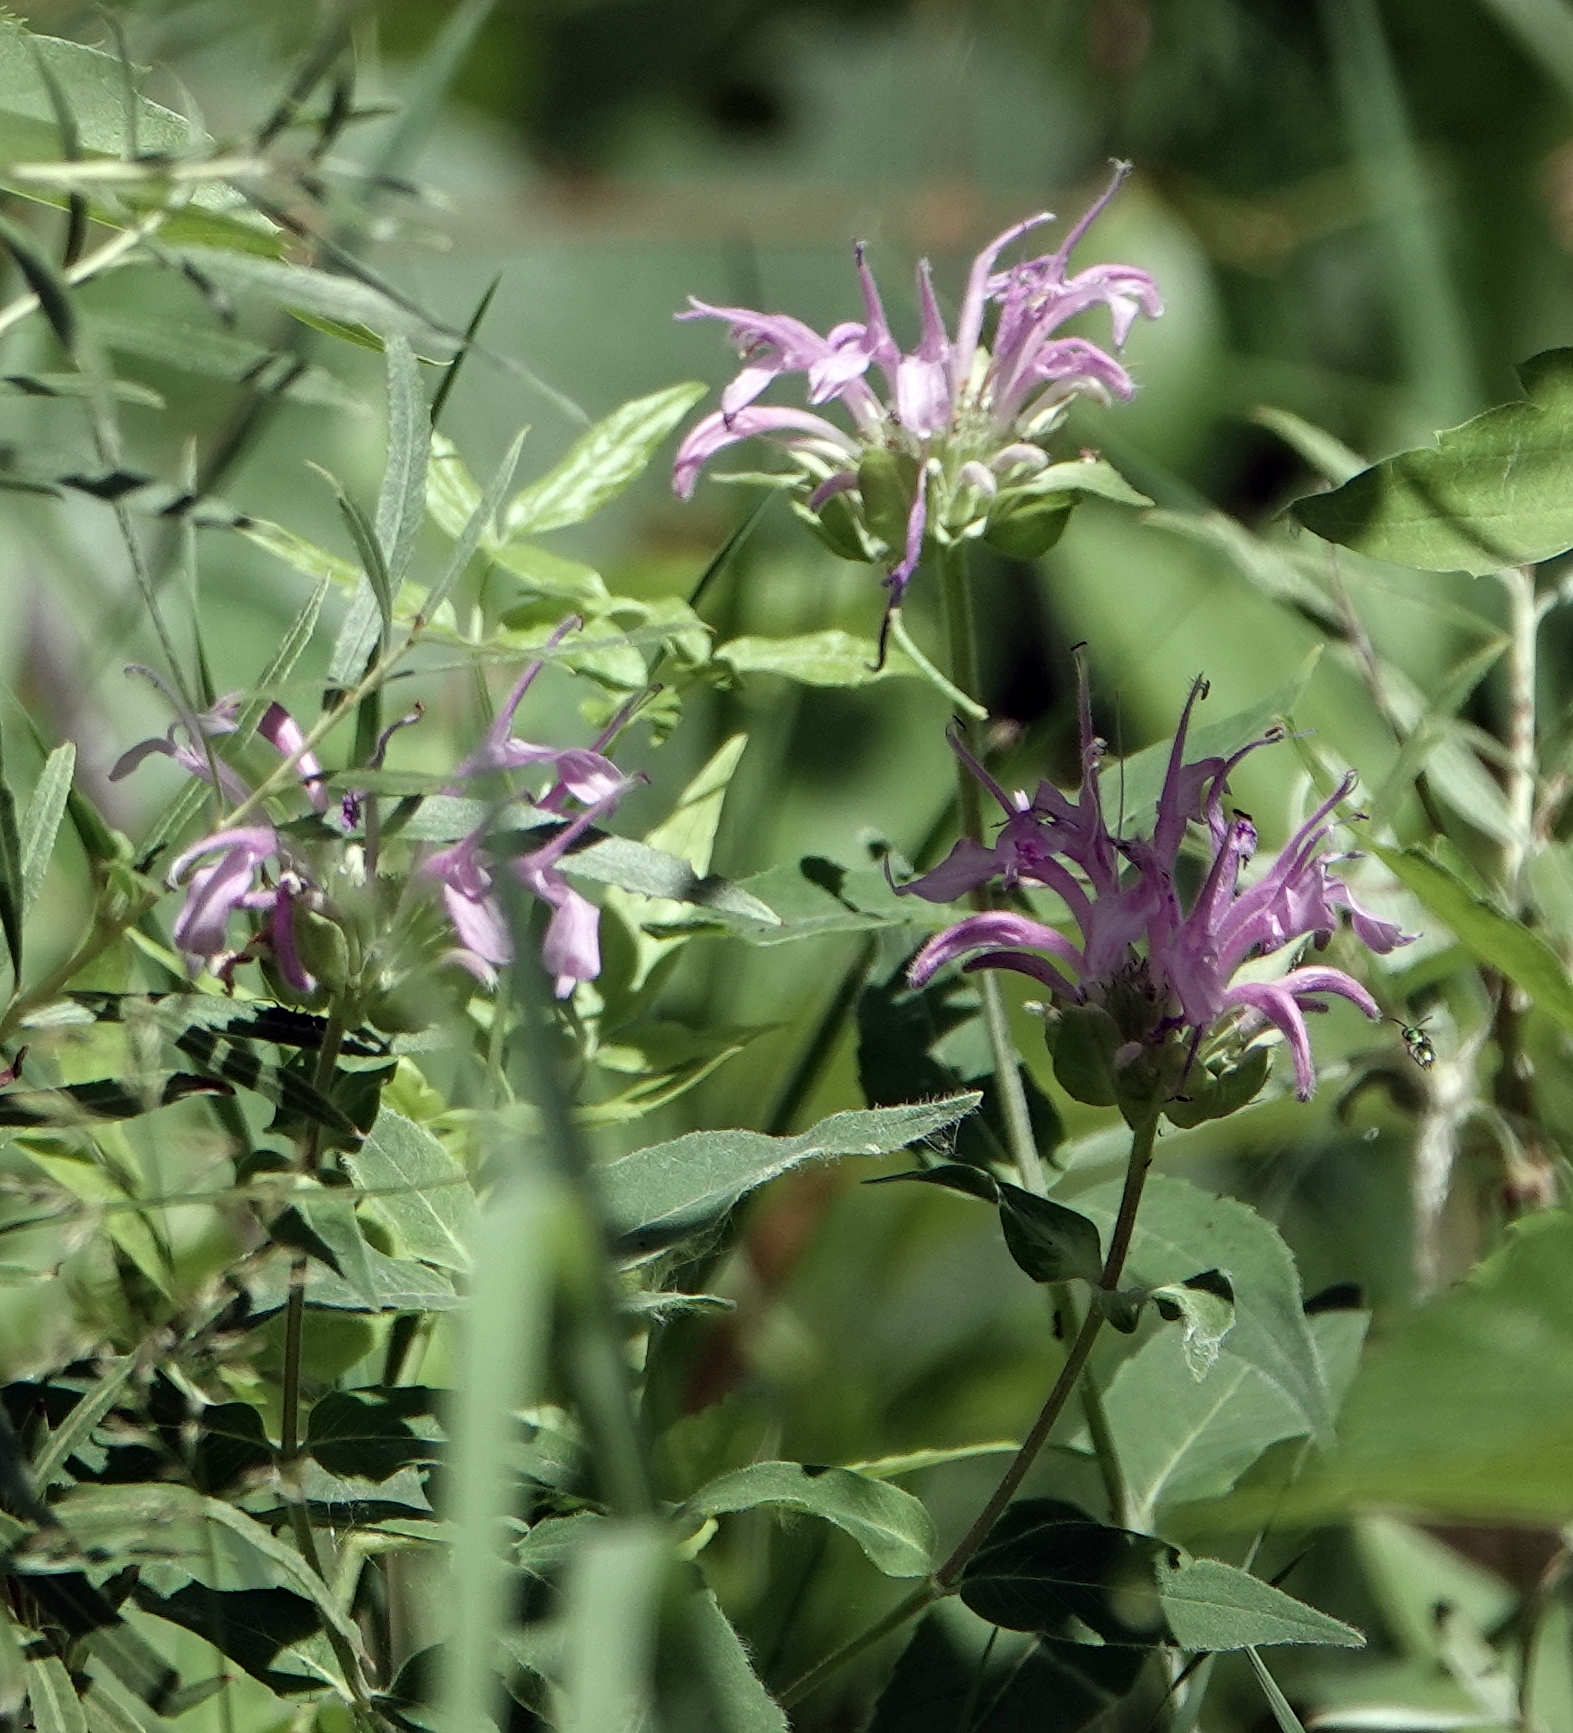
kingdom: Plantae
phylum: Tracheophyta
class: Magnoliopsida
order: Lamiales
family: Lamiaceae
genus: Monarda
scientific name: Monarda fistulosa
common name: Purple beebalm
